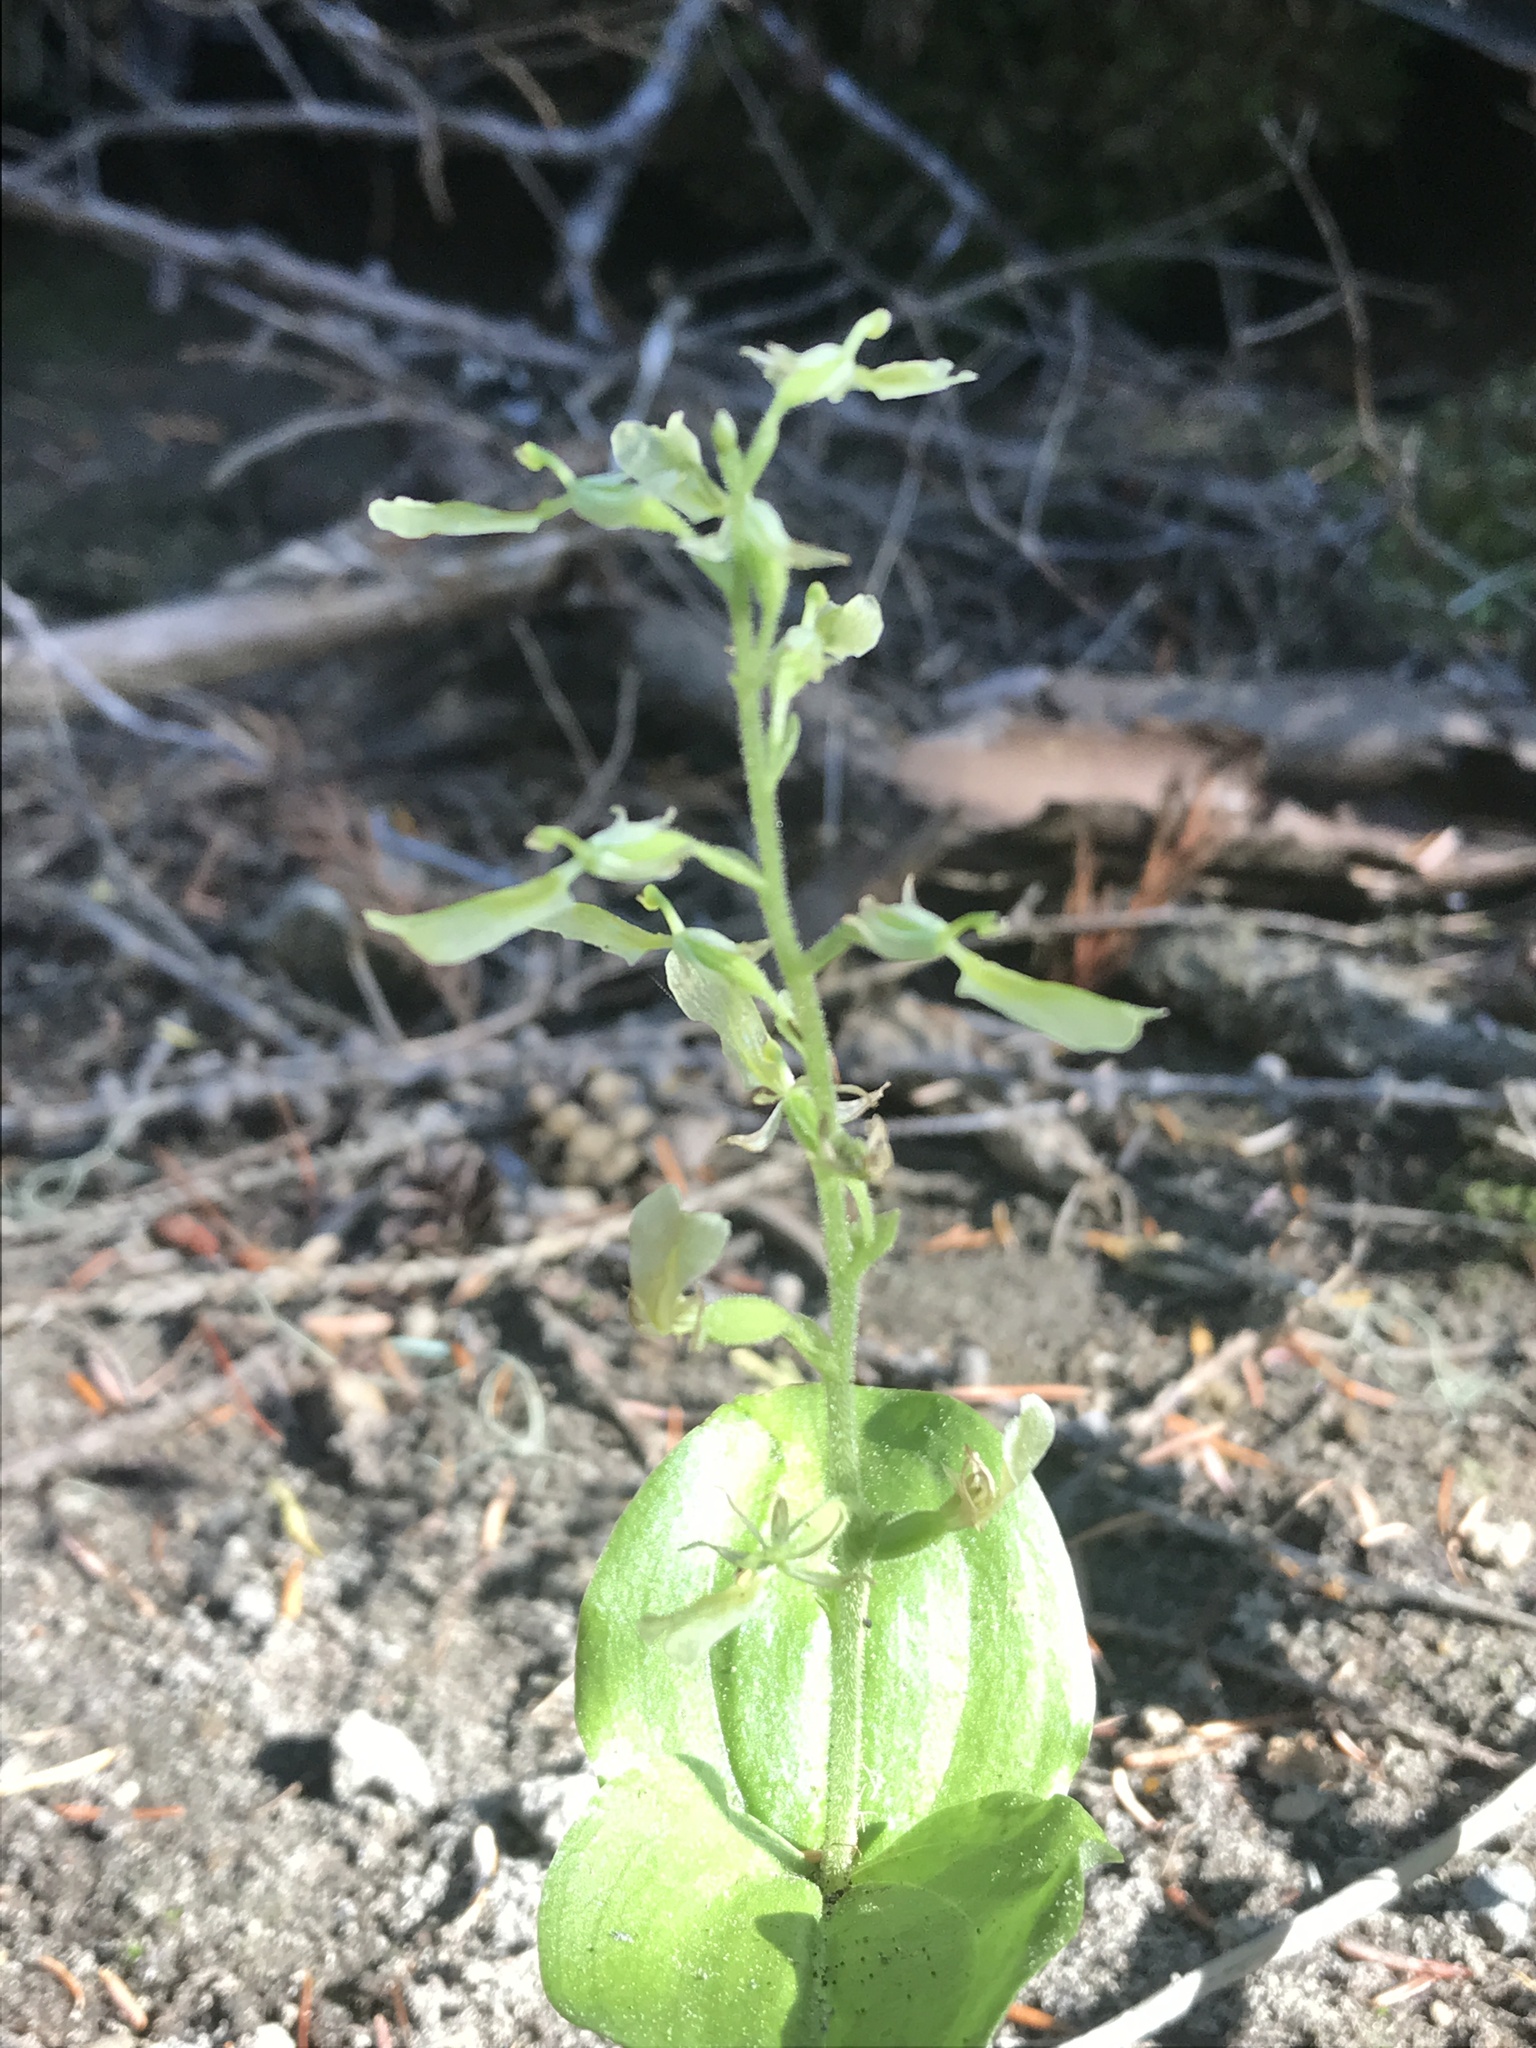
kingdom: Plantae
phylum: Tracheophyta
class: Liliopsida
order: Asparagales
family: Orchidaceae
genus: Neottia
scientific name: Neottia convallarioides
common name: Broadleaf twayblade
